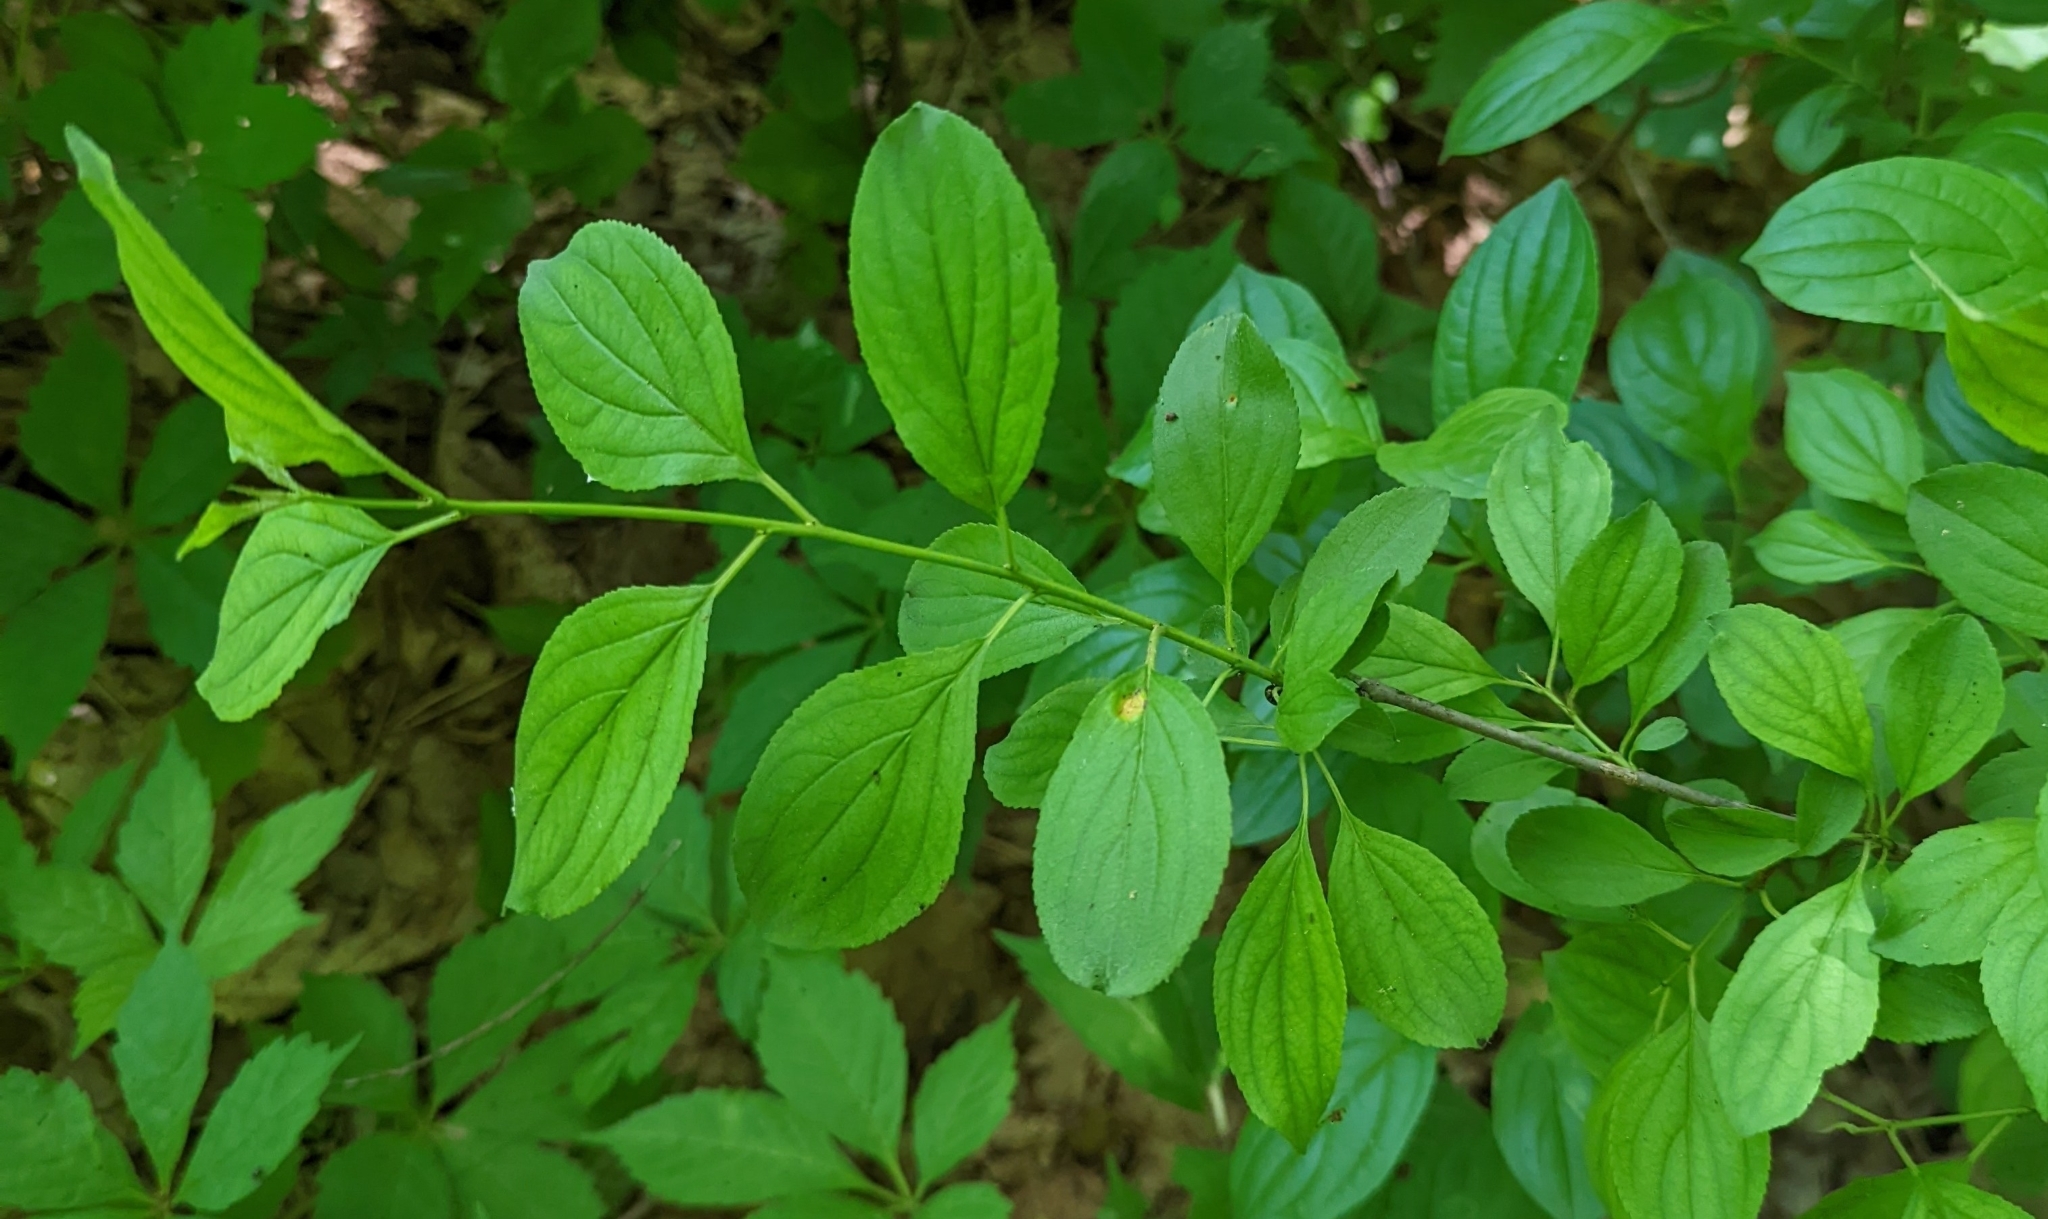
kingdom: Plantae
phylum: Tracheophyta
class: Magnoliopsida
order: Rosales
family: Rhamnaceae
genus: Rhamnus
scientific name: Rhamnus cathartica
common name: Common buckthorn
